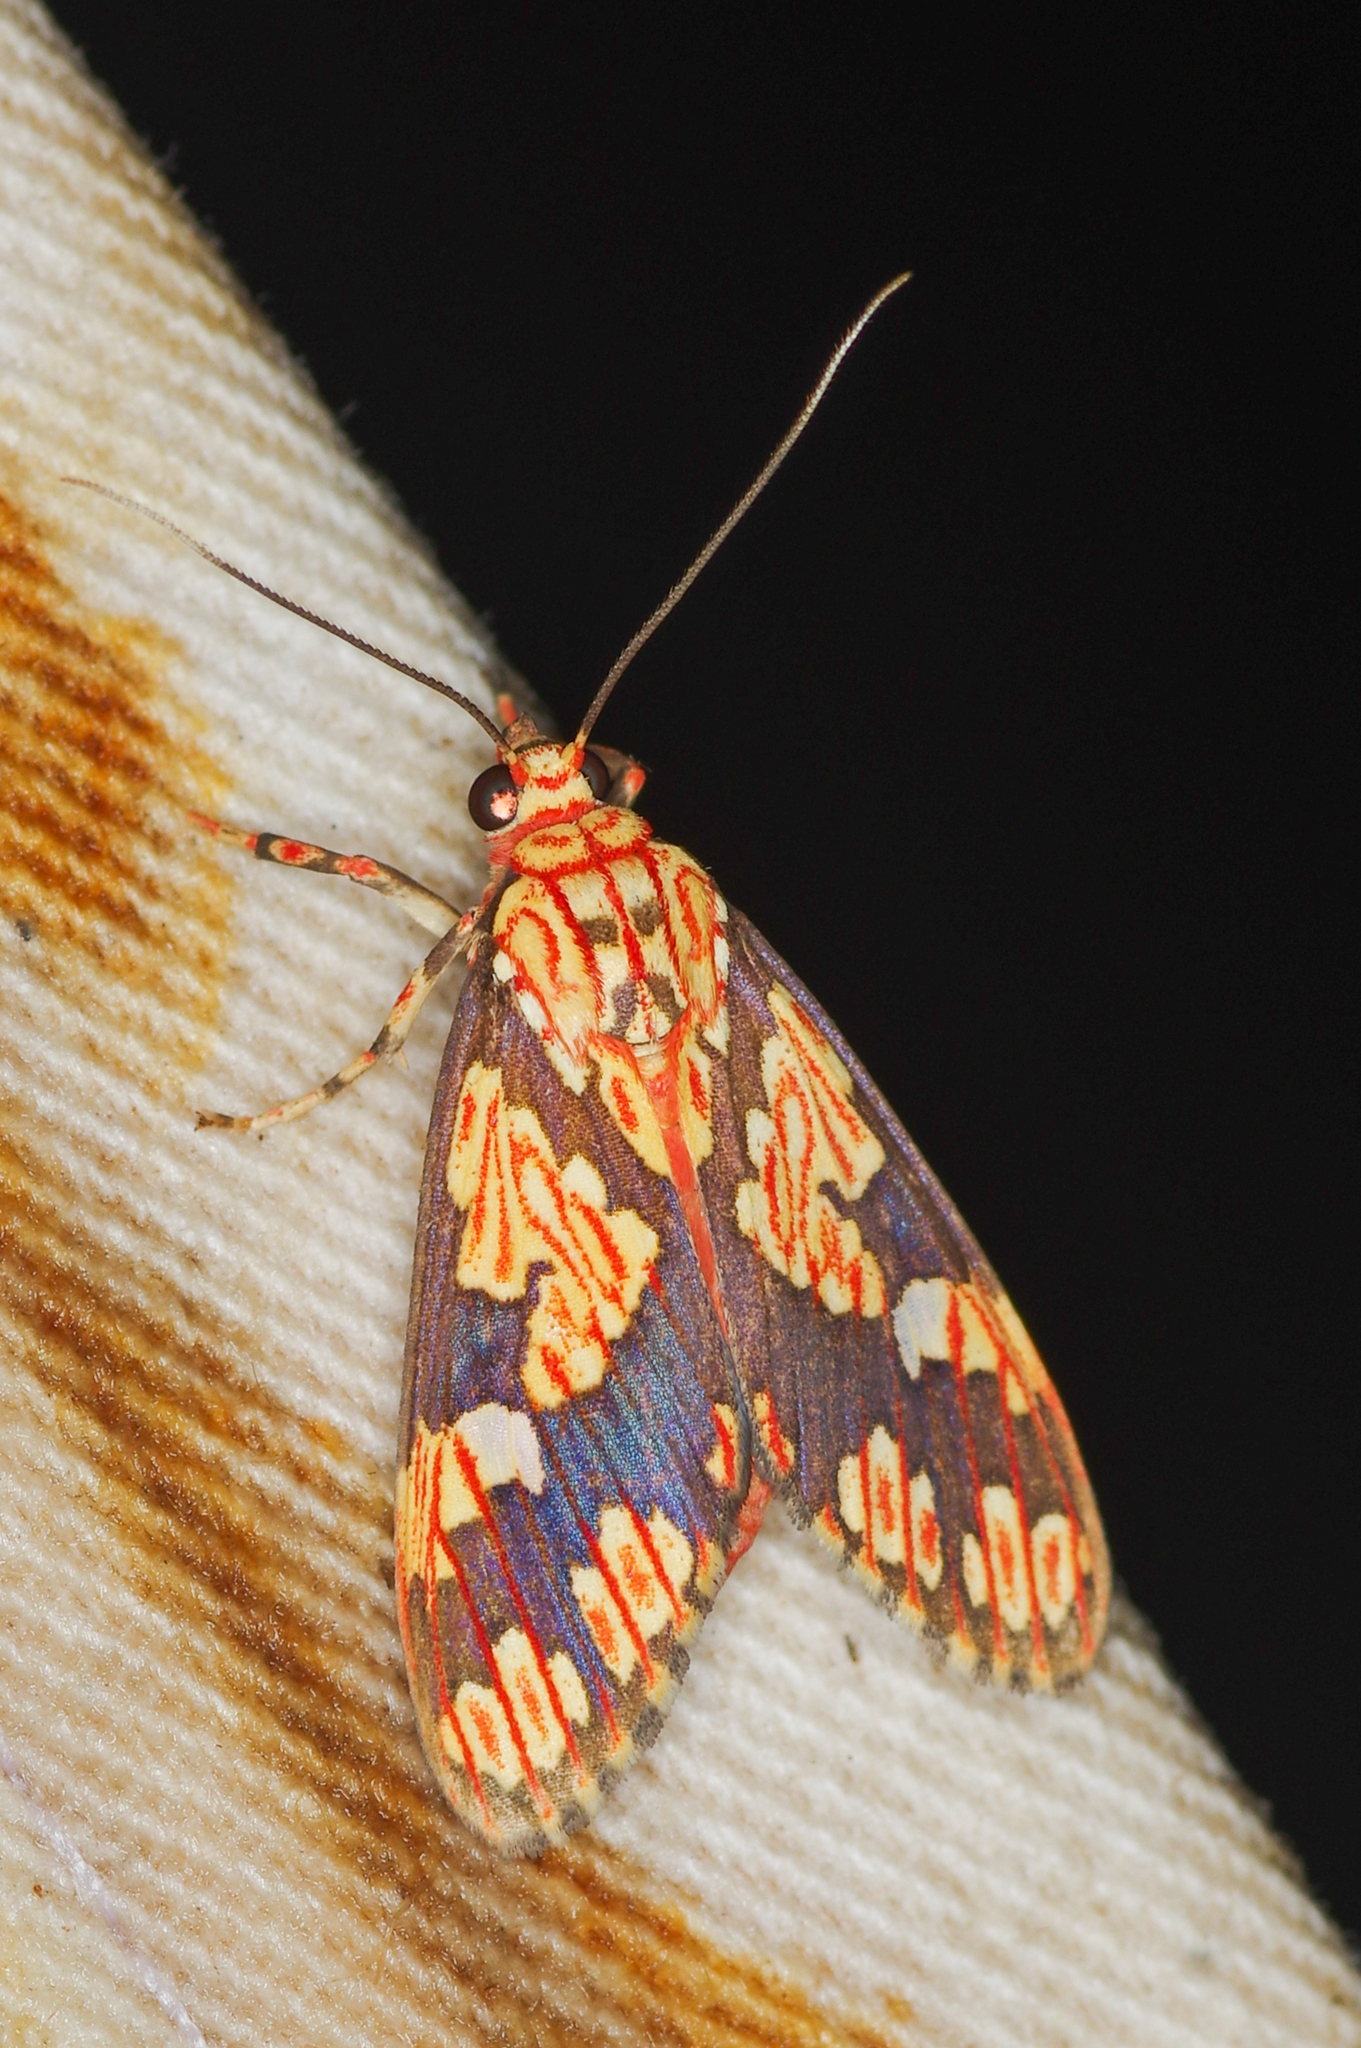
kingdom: Animalia
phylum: Arthropoda
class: Insecta
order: Lepidoptera
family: Erebidae
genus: Araeomolis
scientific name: Araeomolis rhodographa
